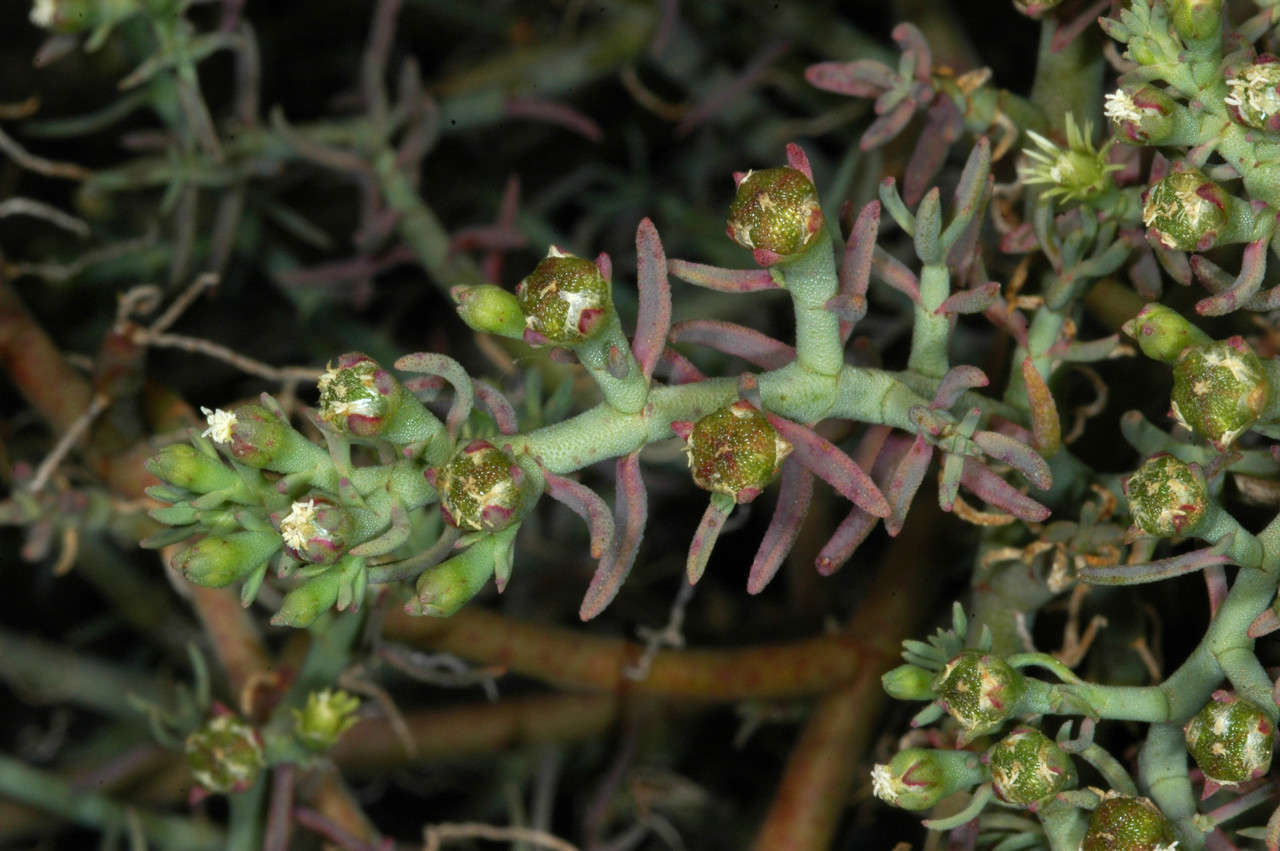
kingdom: Plantae
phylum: Tracheophyta
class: Magnoliopsida
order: Caryophyllales
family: Aizoaceae
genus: Mesembryanthemum
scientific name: Mesembryanthemum granulicaule
